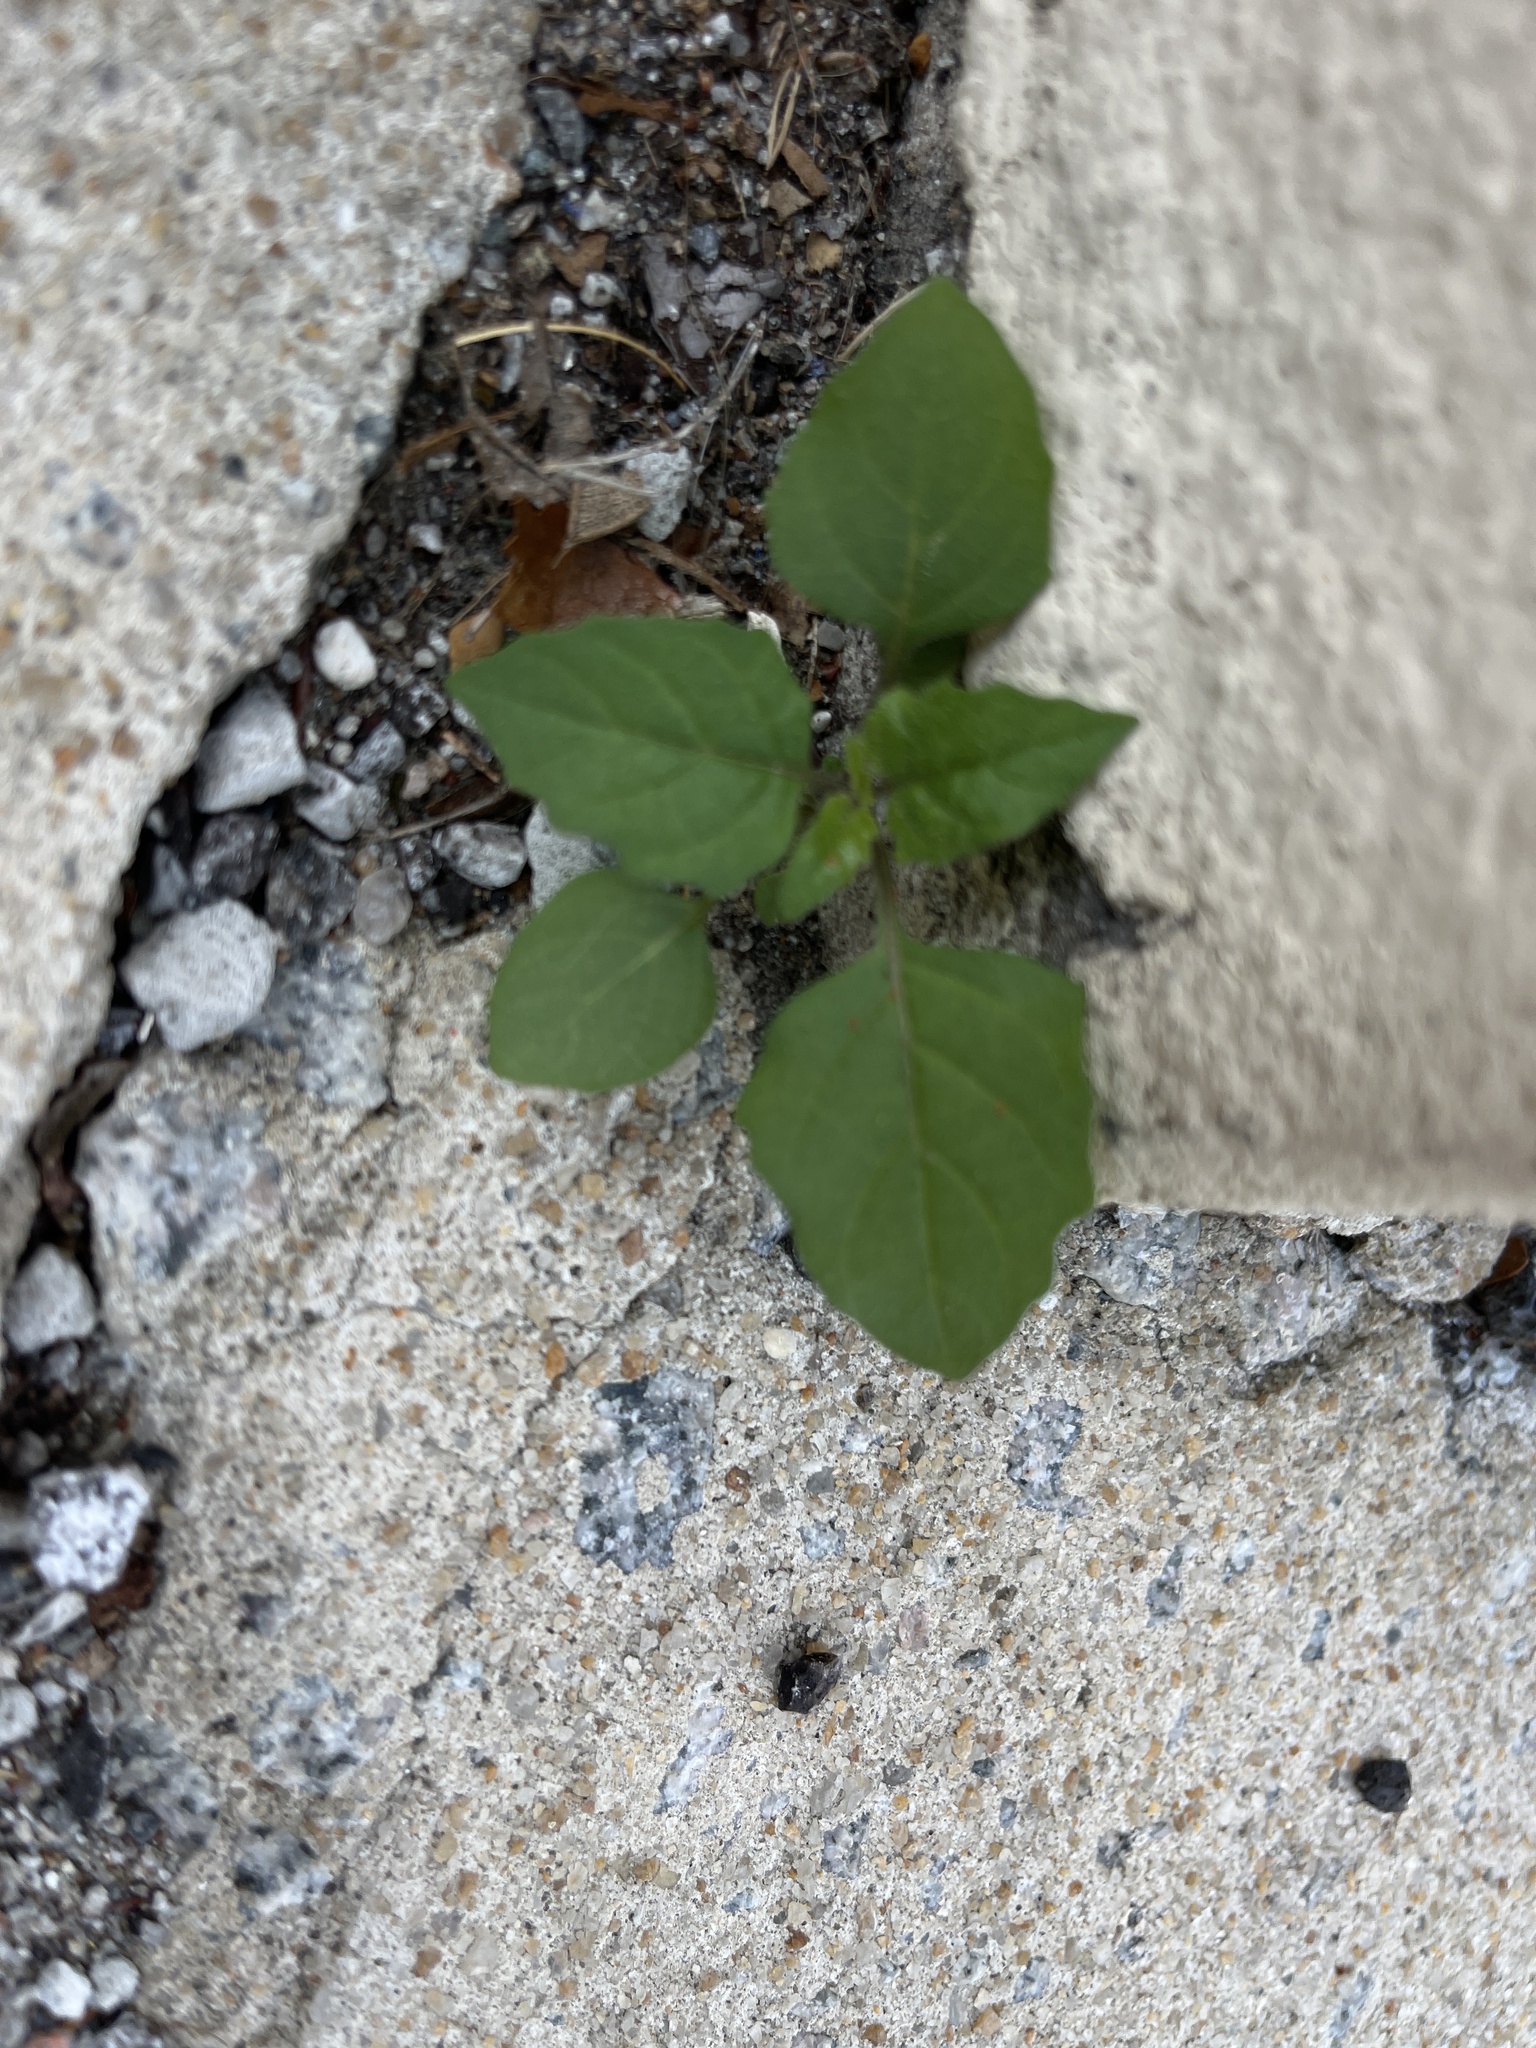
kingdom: Plantae
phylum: Tracheophyta
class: Magnoliopsida
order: Solanales
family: Solanaceae
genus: Solanum
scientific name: Solanum
